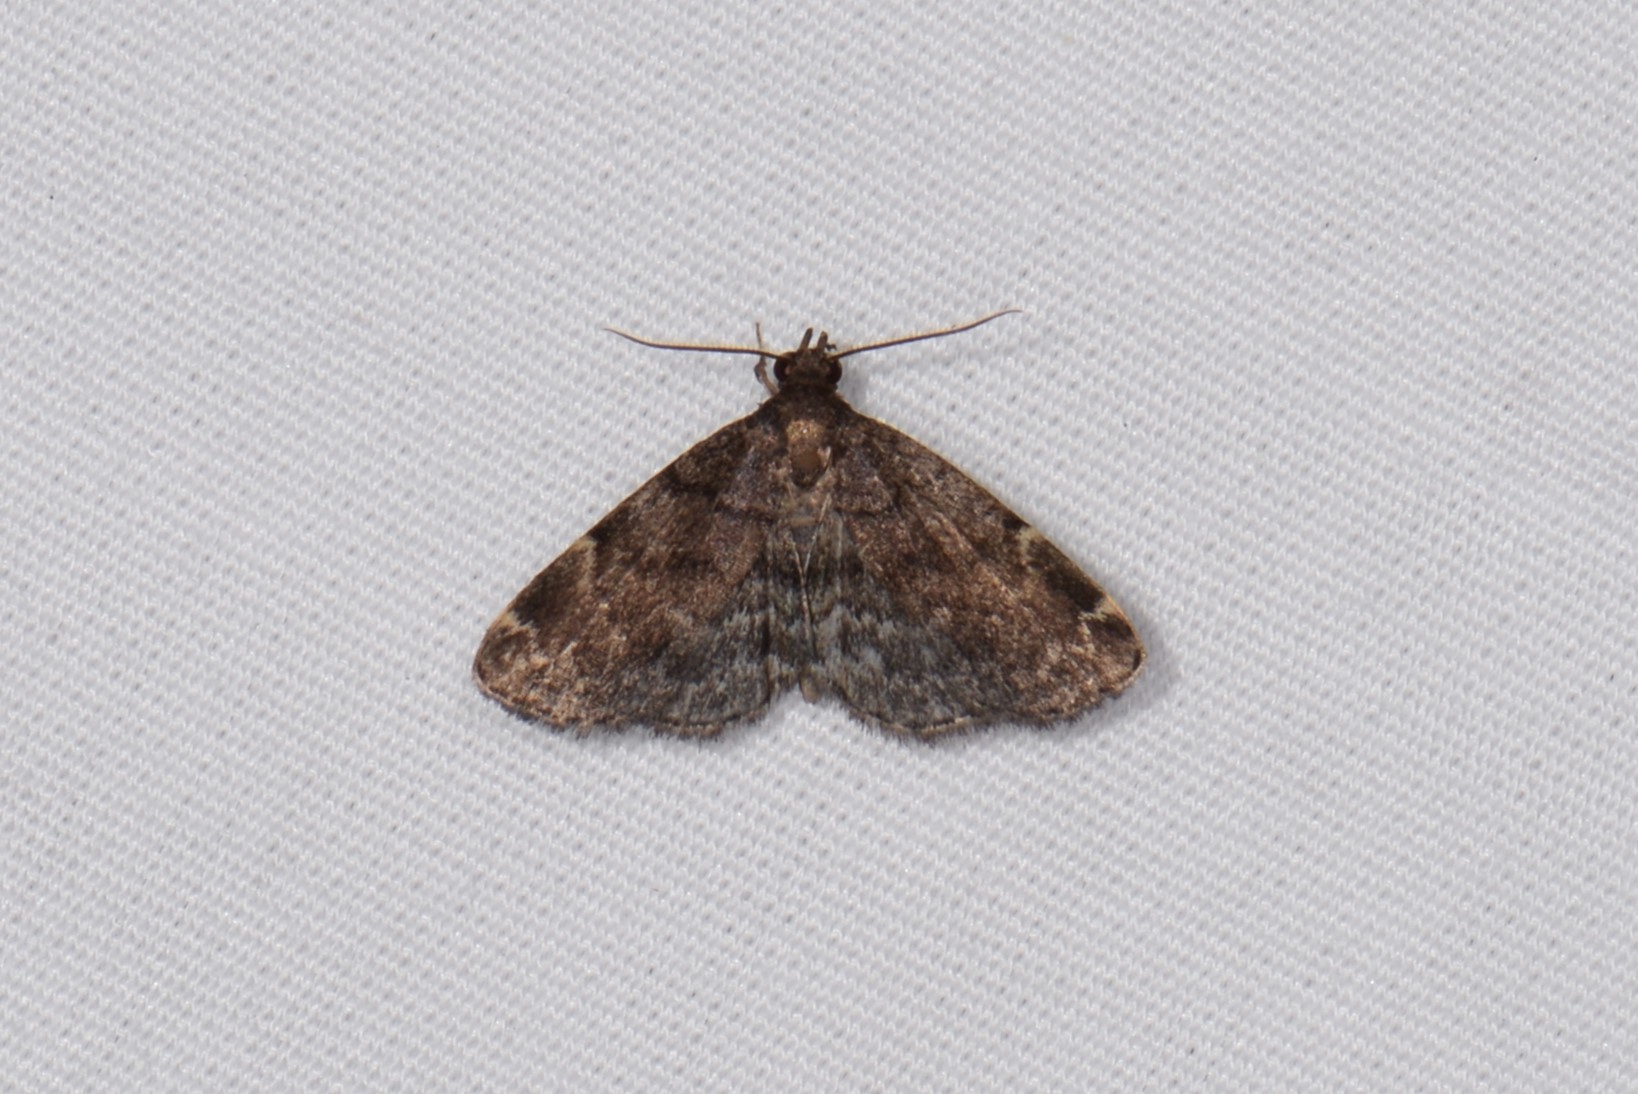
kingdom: Animalia
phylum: Arthropoda
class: Insecta
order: Lepidoptera
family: Erebidae
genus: Idia
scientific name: Idia forbesii
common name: Forbes' idia moth
